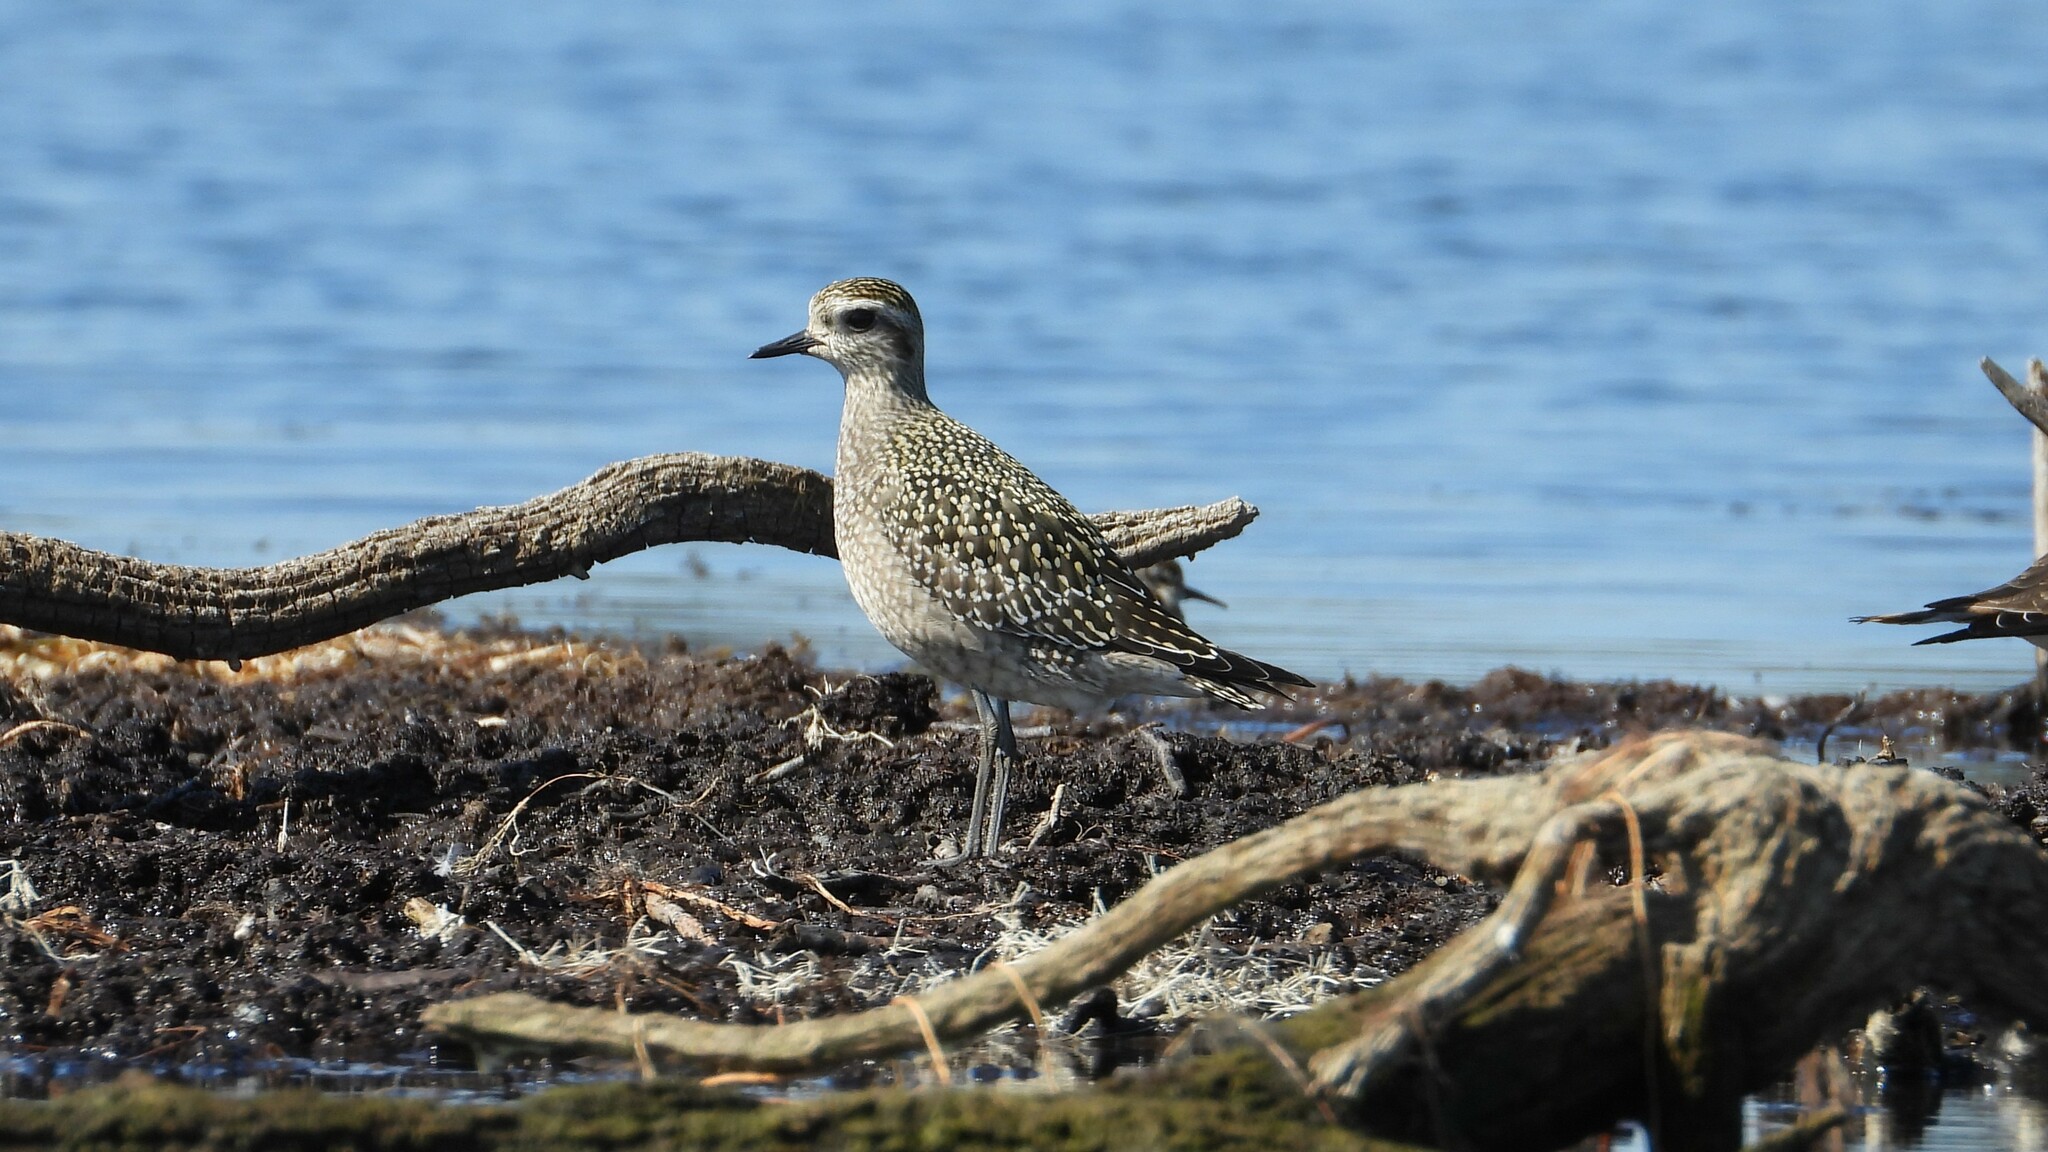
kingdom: Animalia
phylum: Chordata
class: Aves
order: Charadriiformes
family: Charadriidae
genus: Pluvialis
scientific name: Pluvialis dominica
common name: American golden plover
